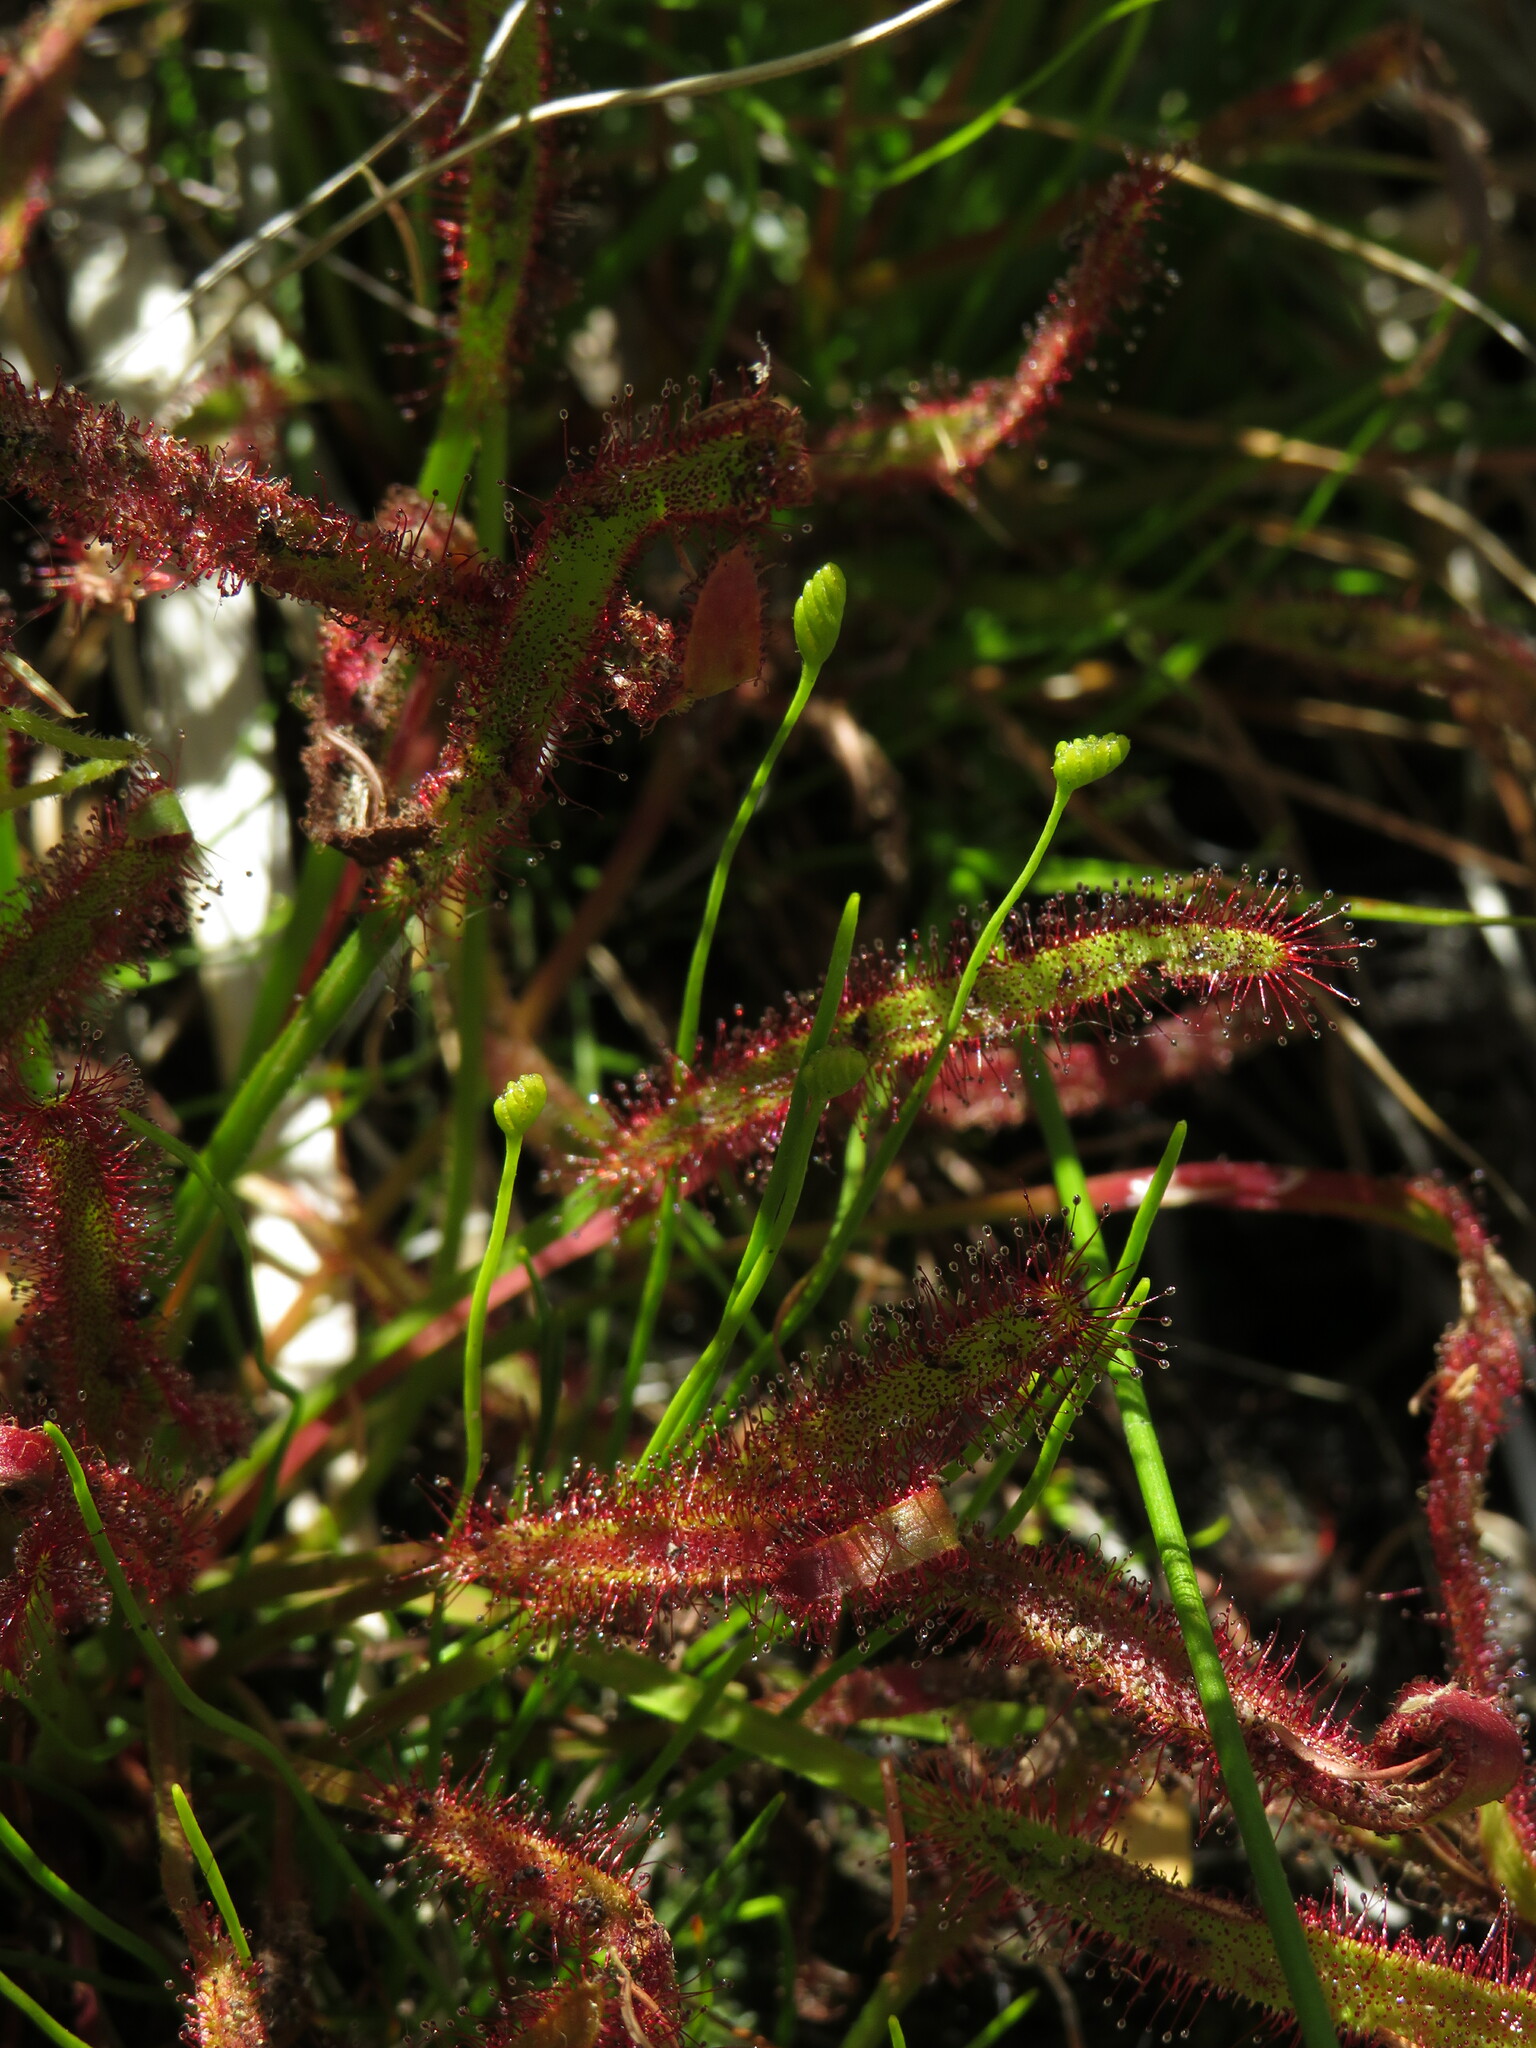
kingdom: Plantae
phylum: Tracheophyta
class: Polypodiopsida
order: Schizaeales
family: Schizaeaceae
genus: Microschizaea
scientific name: Microschizaea tenella
